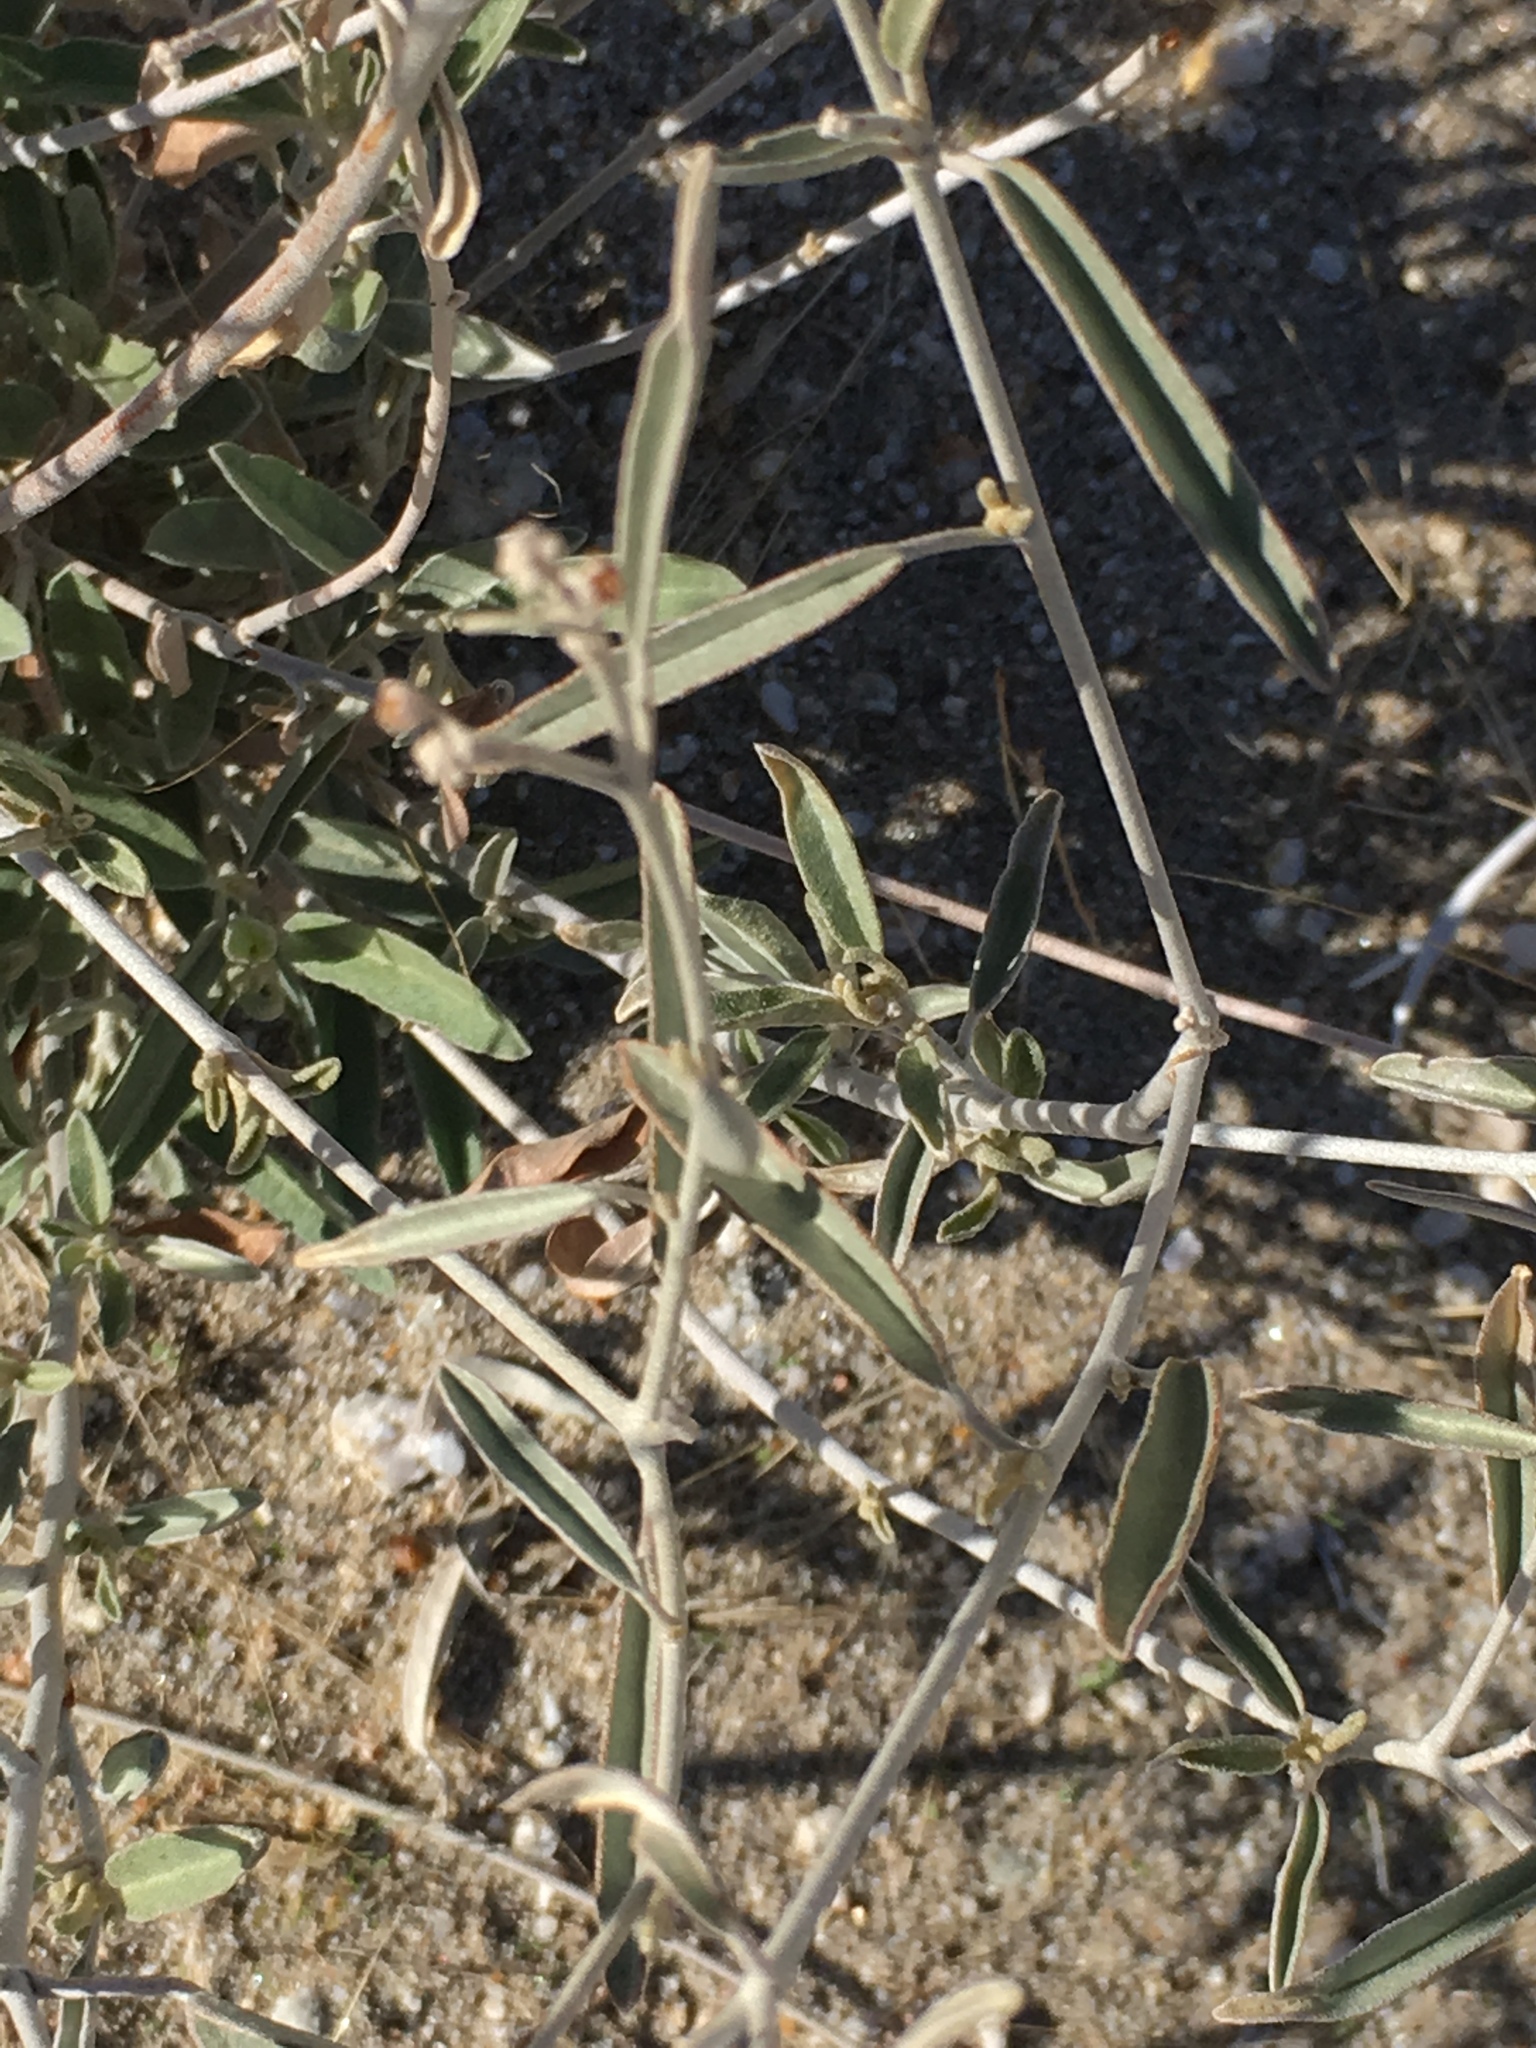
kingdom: Plantae
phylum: Tracheophyta
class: Magnoliopsida
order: Malpighiales
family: Euphorbiaceae
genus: Croton
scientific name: Croton californicus
